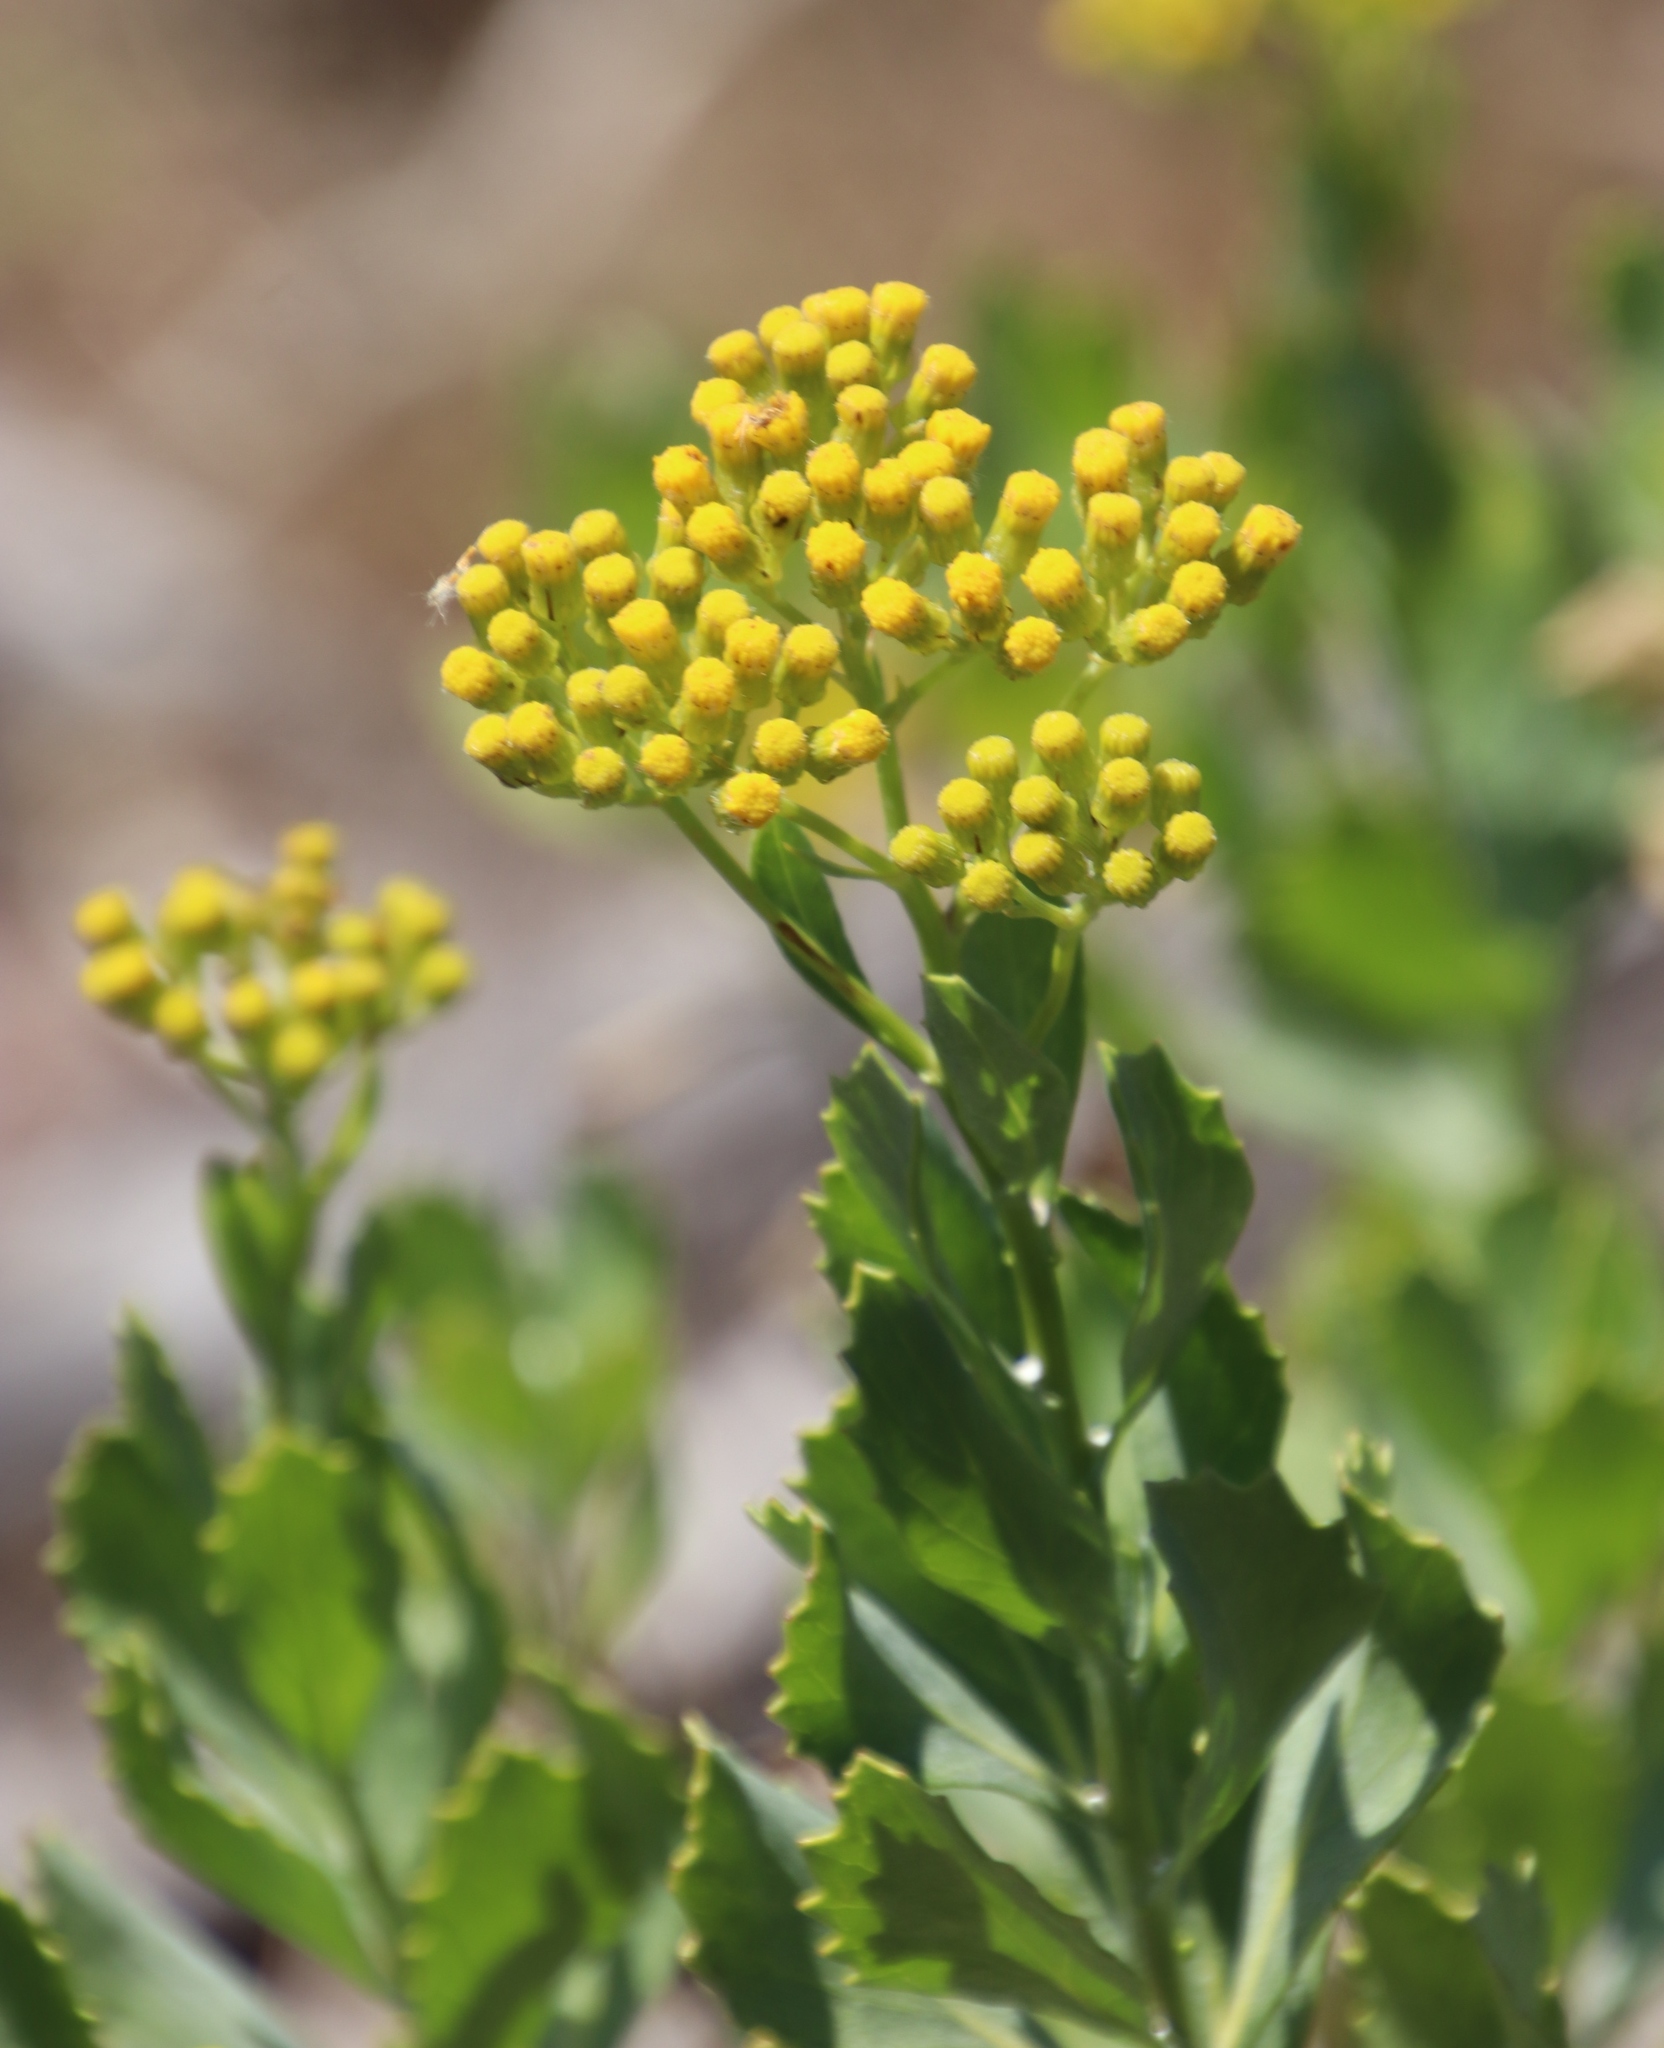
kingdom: Plantae
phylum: Tracheophyta
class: Magnoliopsida
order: Asterales
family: Asteraceae
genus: Senecio
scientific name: Senecio halimifolius
